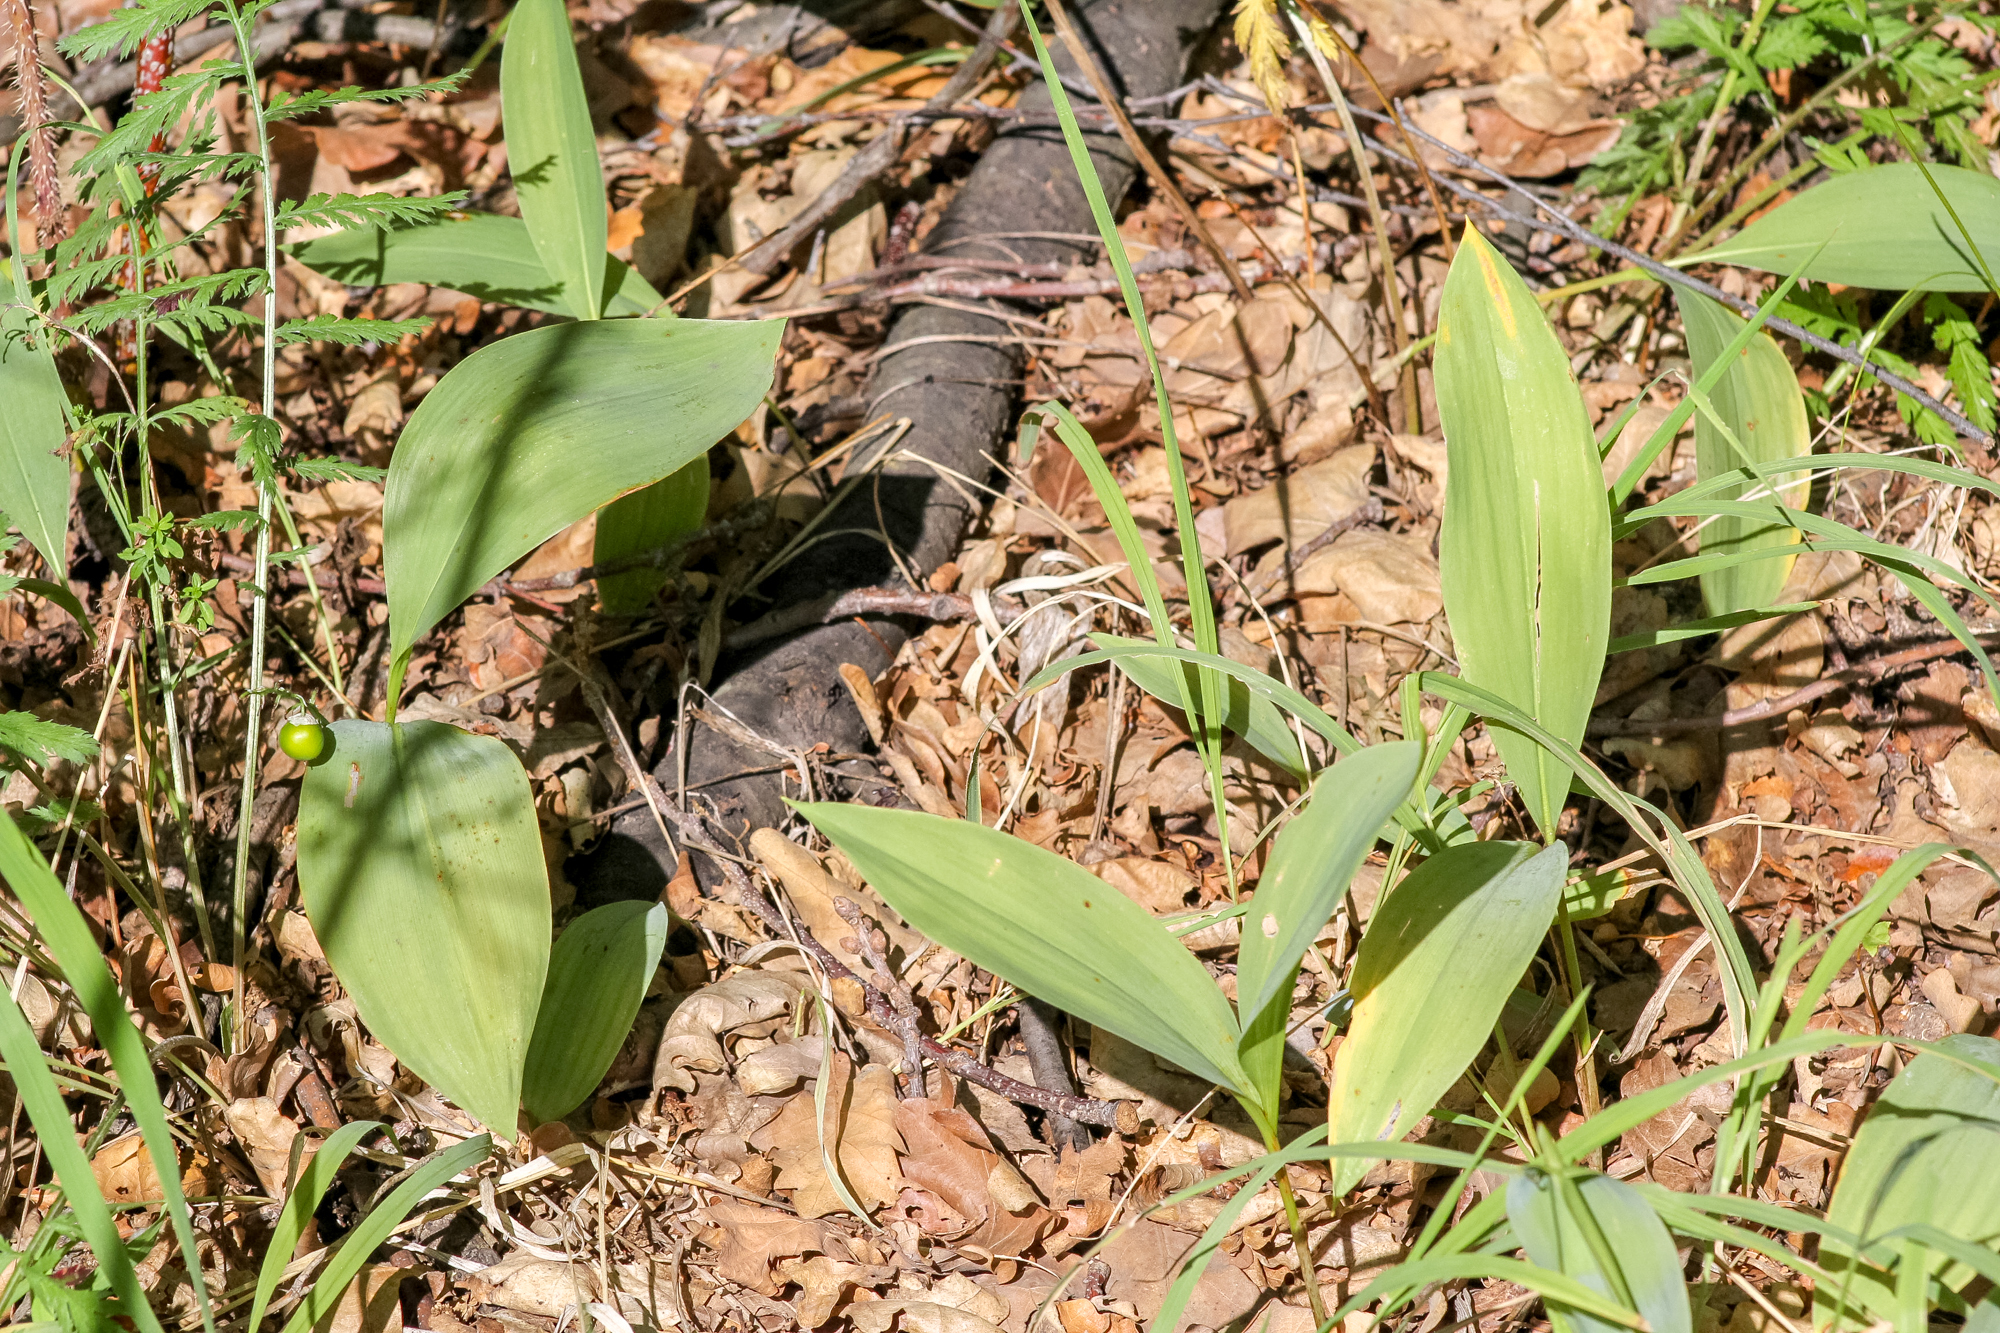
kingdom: Plantae
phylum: Tracheophyta
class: Liliopsida
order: Asparagales
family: Asparagaceae
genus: Convallaria
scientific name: Convallaria majalis
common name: Lily-of-the-valley
